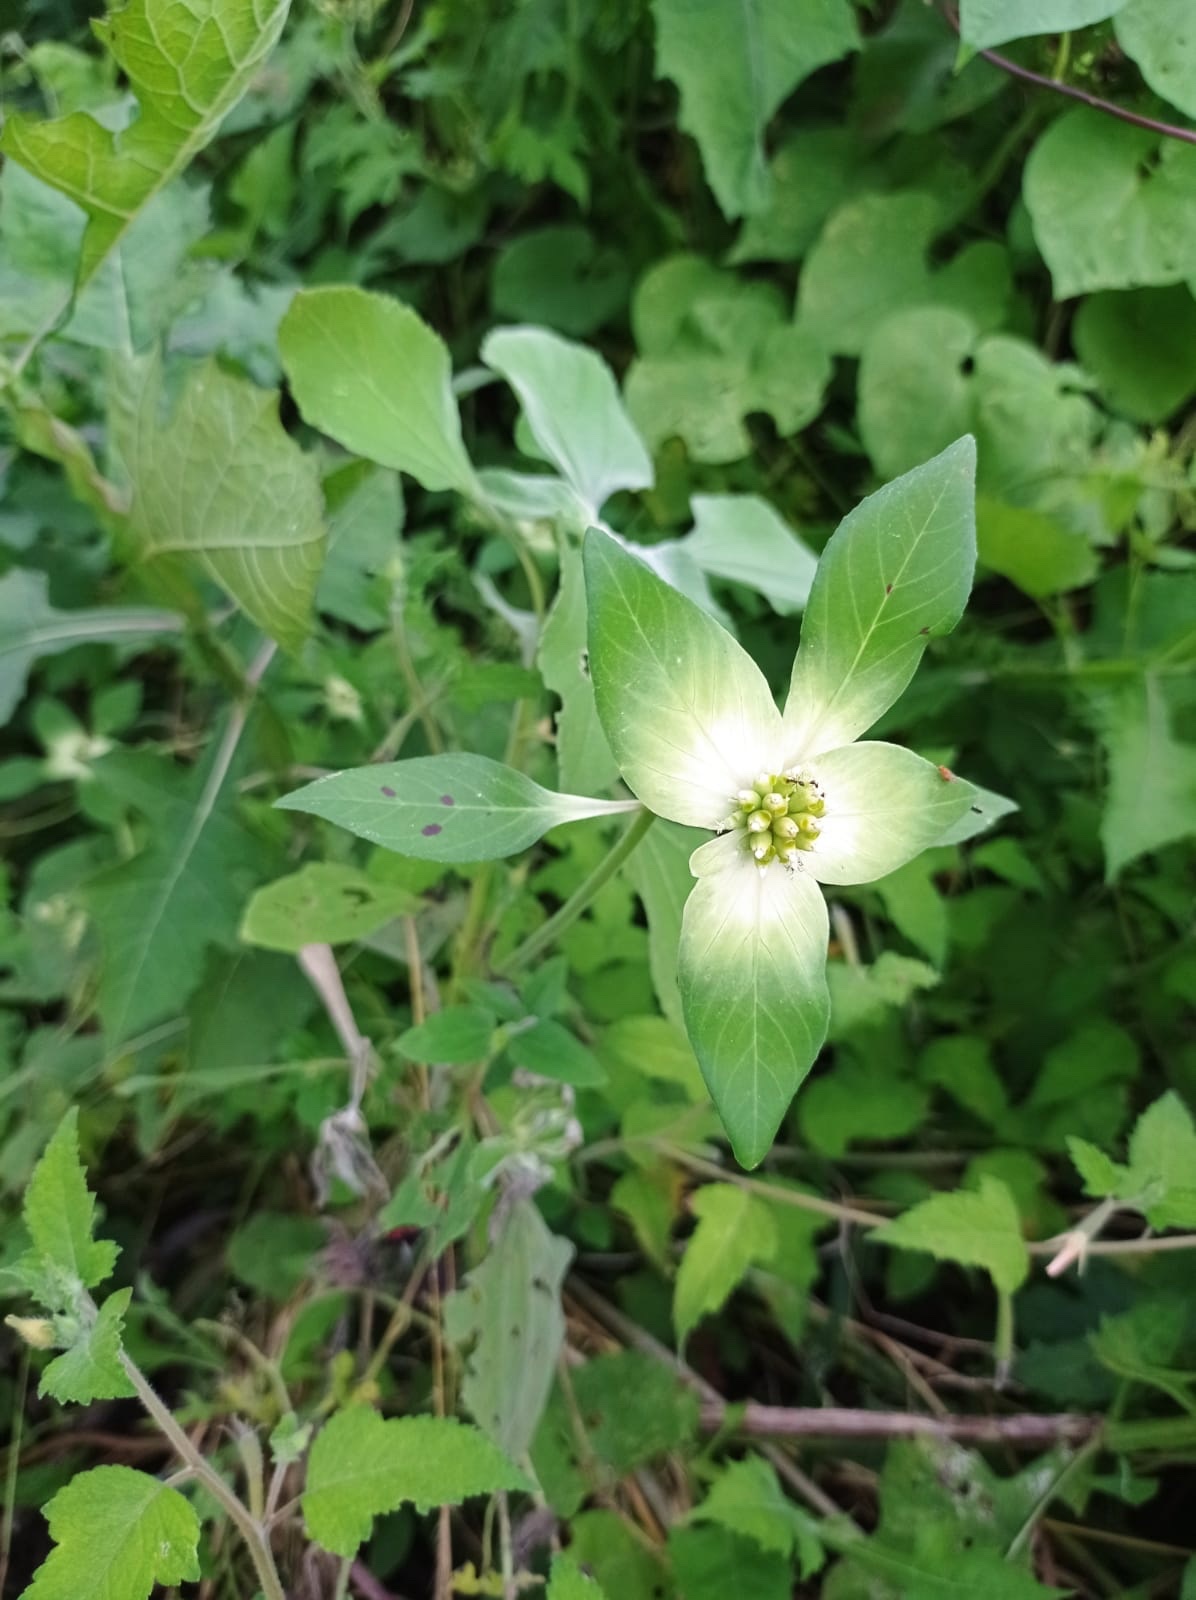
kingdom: Plantae
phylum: Tracheophyta
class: Magnoliopsida
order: Malpighiales
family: Euphorbiaceae
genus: Euphorbia
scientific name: Euphorbia schiedeana
